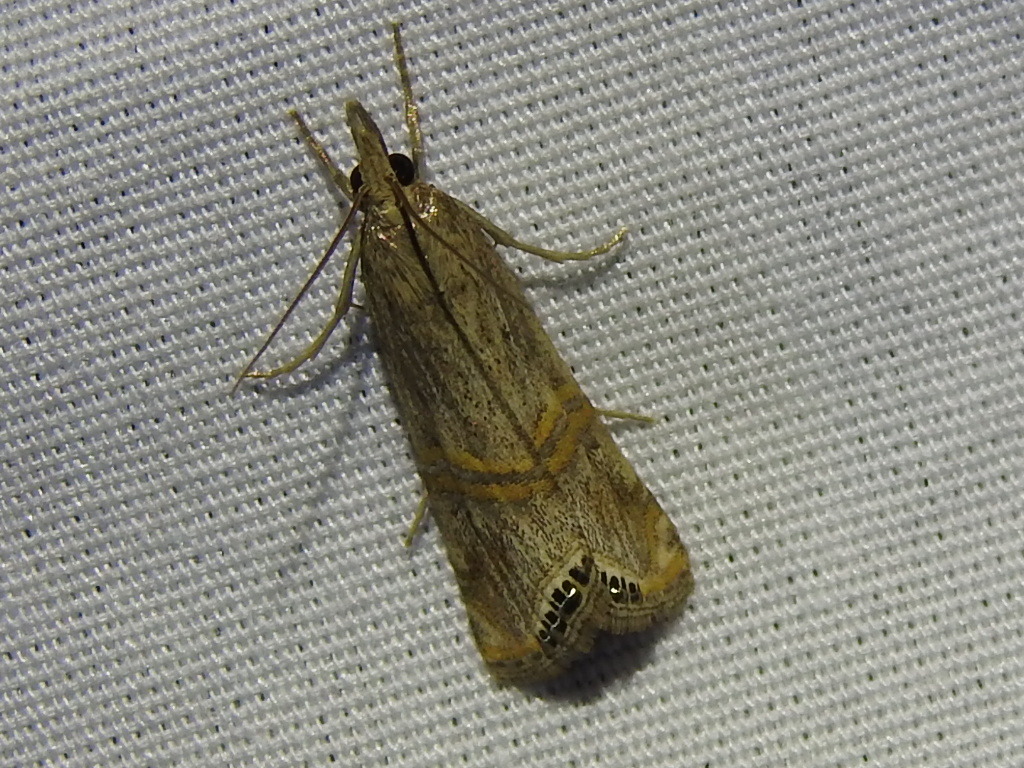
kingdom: Animalia
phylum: Arthropoda
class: Insecta
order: Lepidoptera
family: Crambidae
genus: Euchromius
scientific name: Euchromius ocellea
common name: Necklace veneer moth
